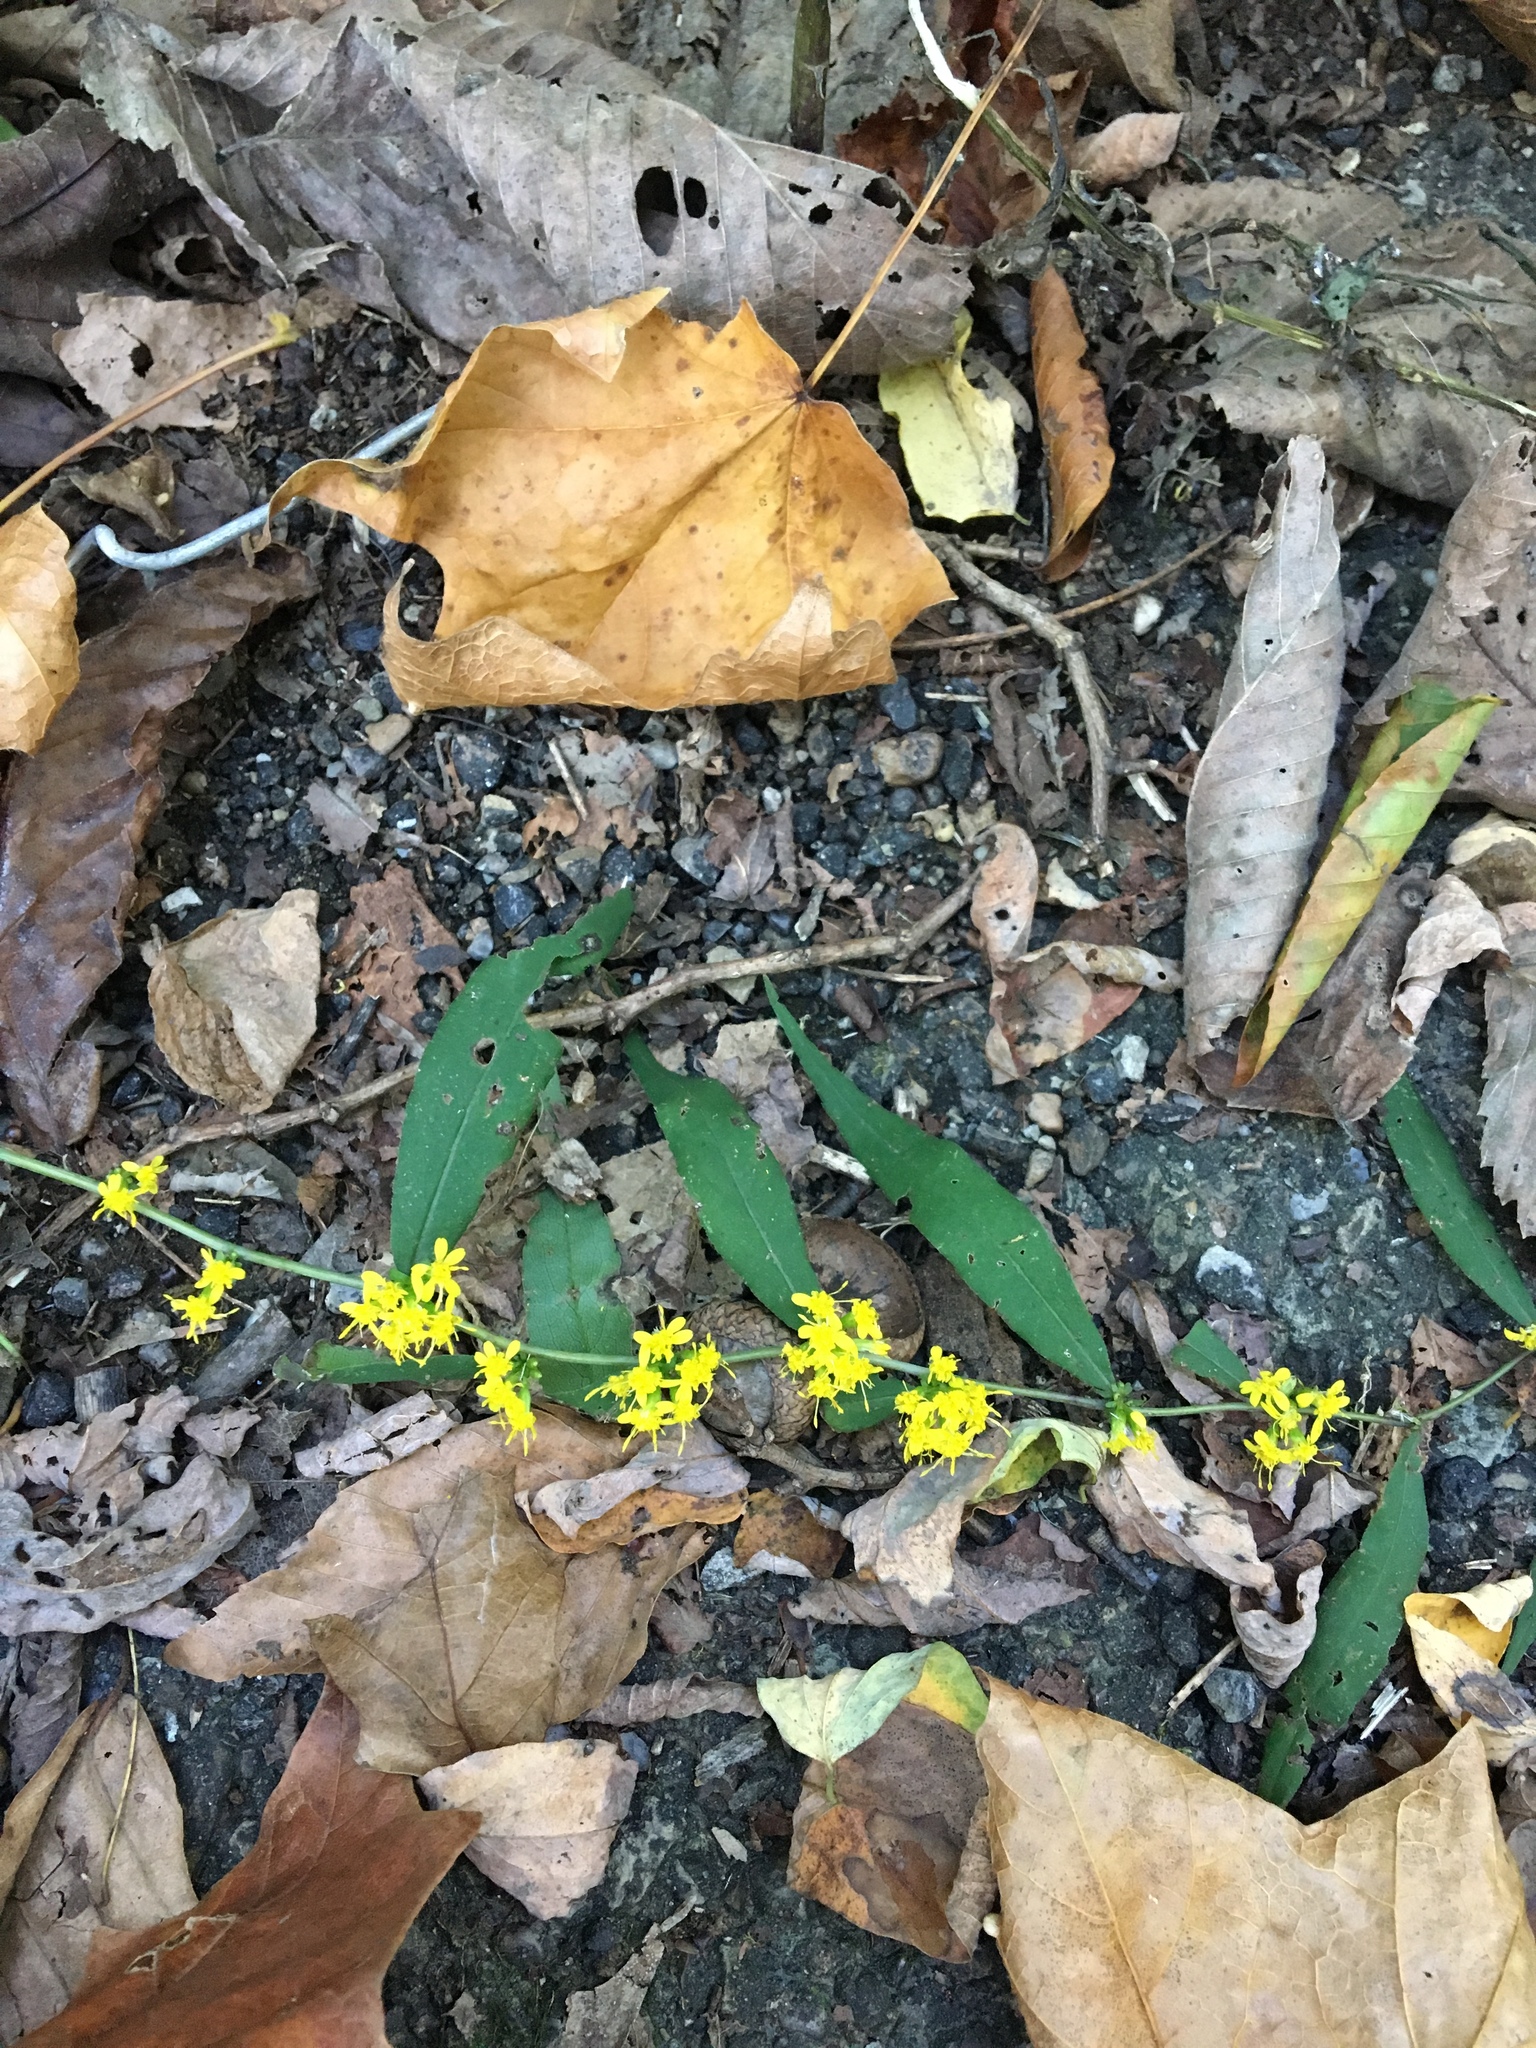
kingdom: Plantae
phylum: Tracheophyta
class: Magnoliopsida
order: Asterales
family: Asteraceae
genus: Solidago
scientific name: Solidago caesia
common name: Woodland goldenrod
